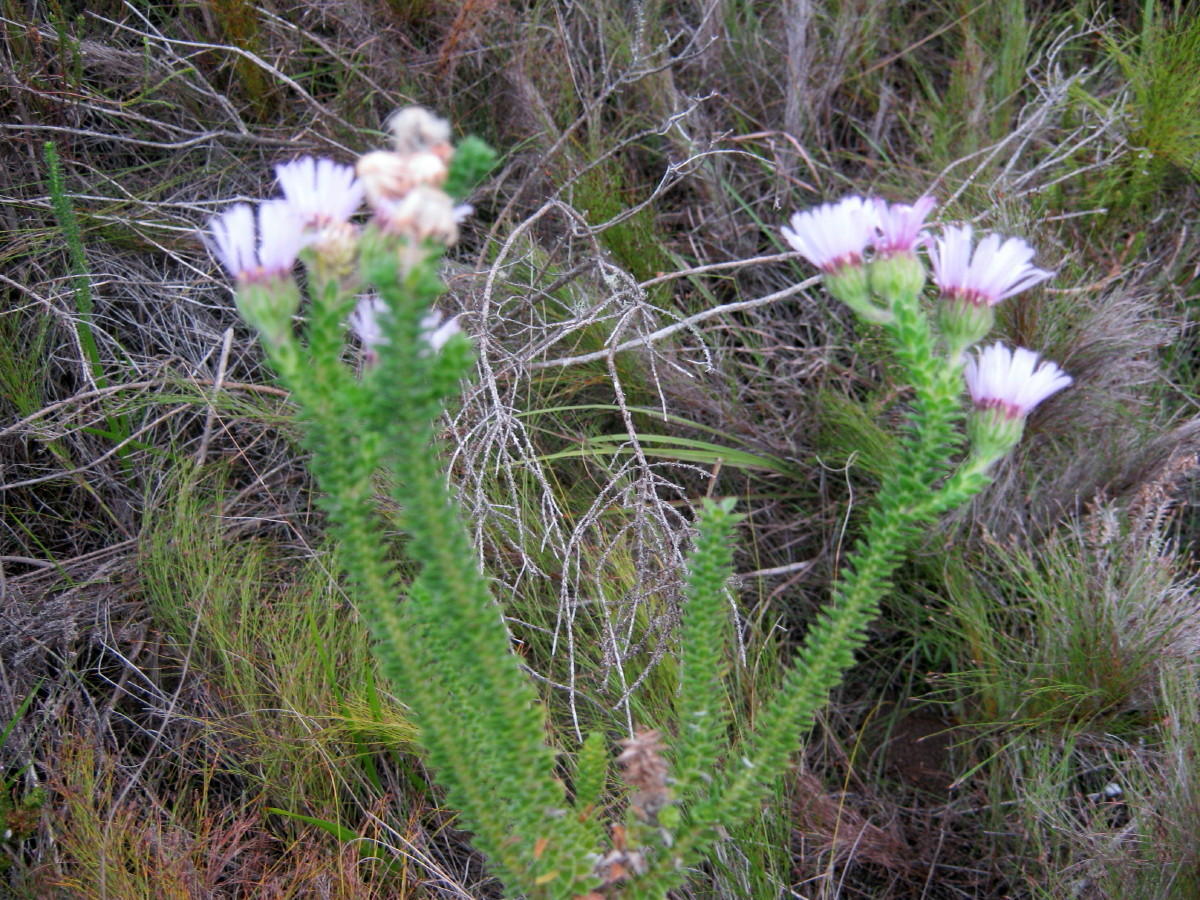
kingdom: Plantae
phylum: Tracheophyta
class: Magnoliopsida
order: Asterales
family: Asteraceae
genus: Felicia
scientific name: Felicia echinata
